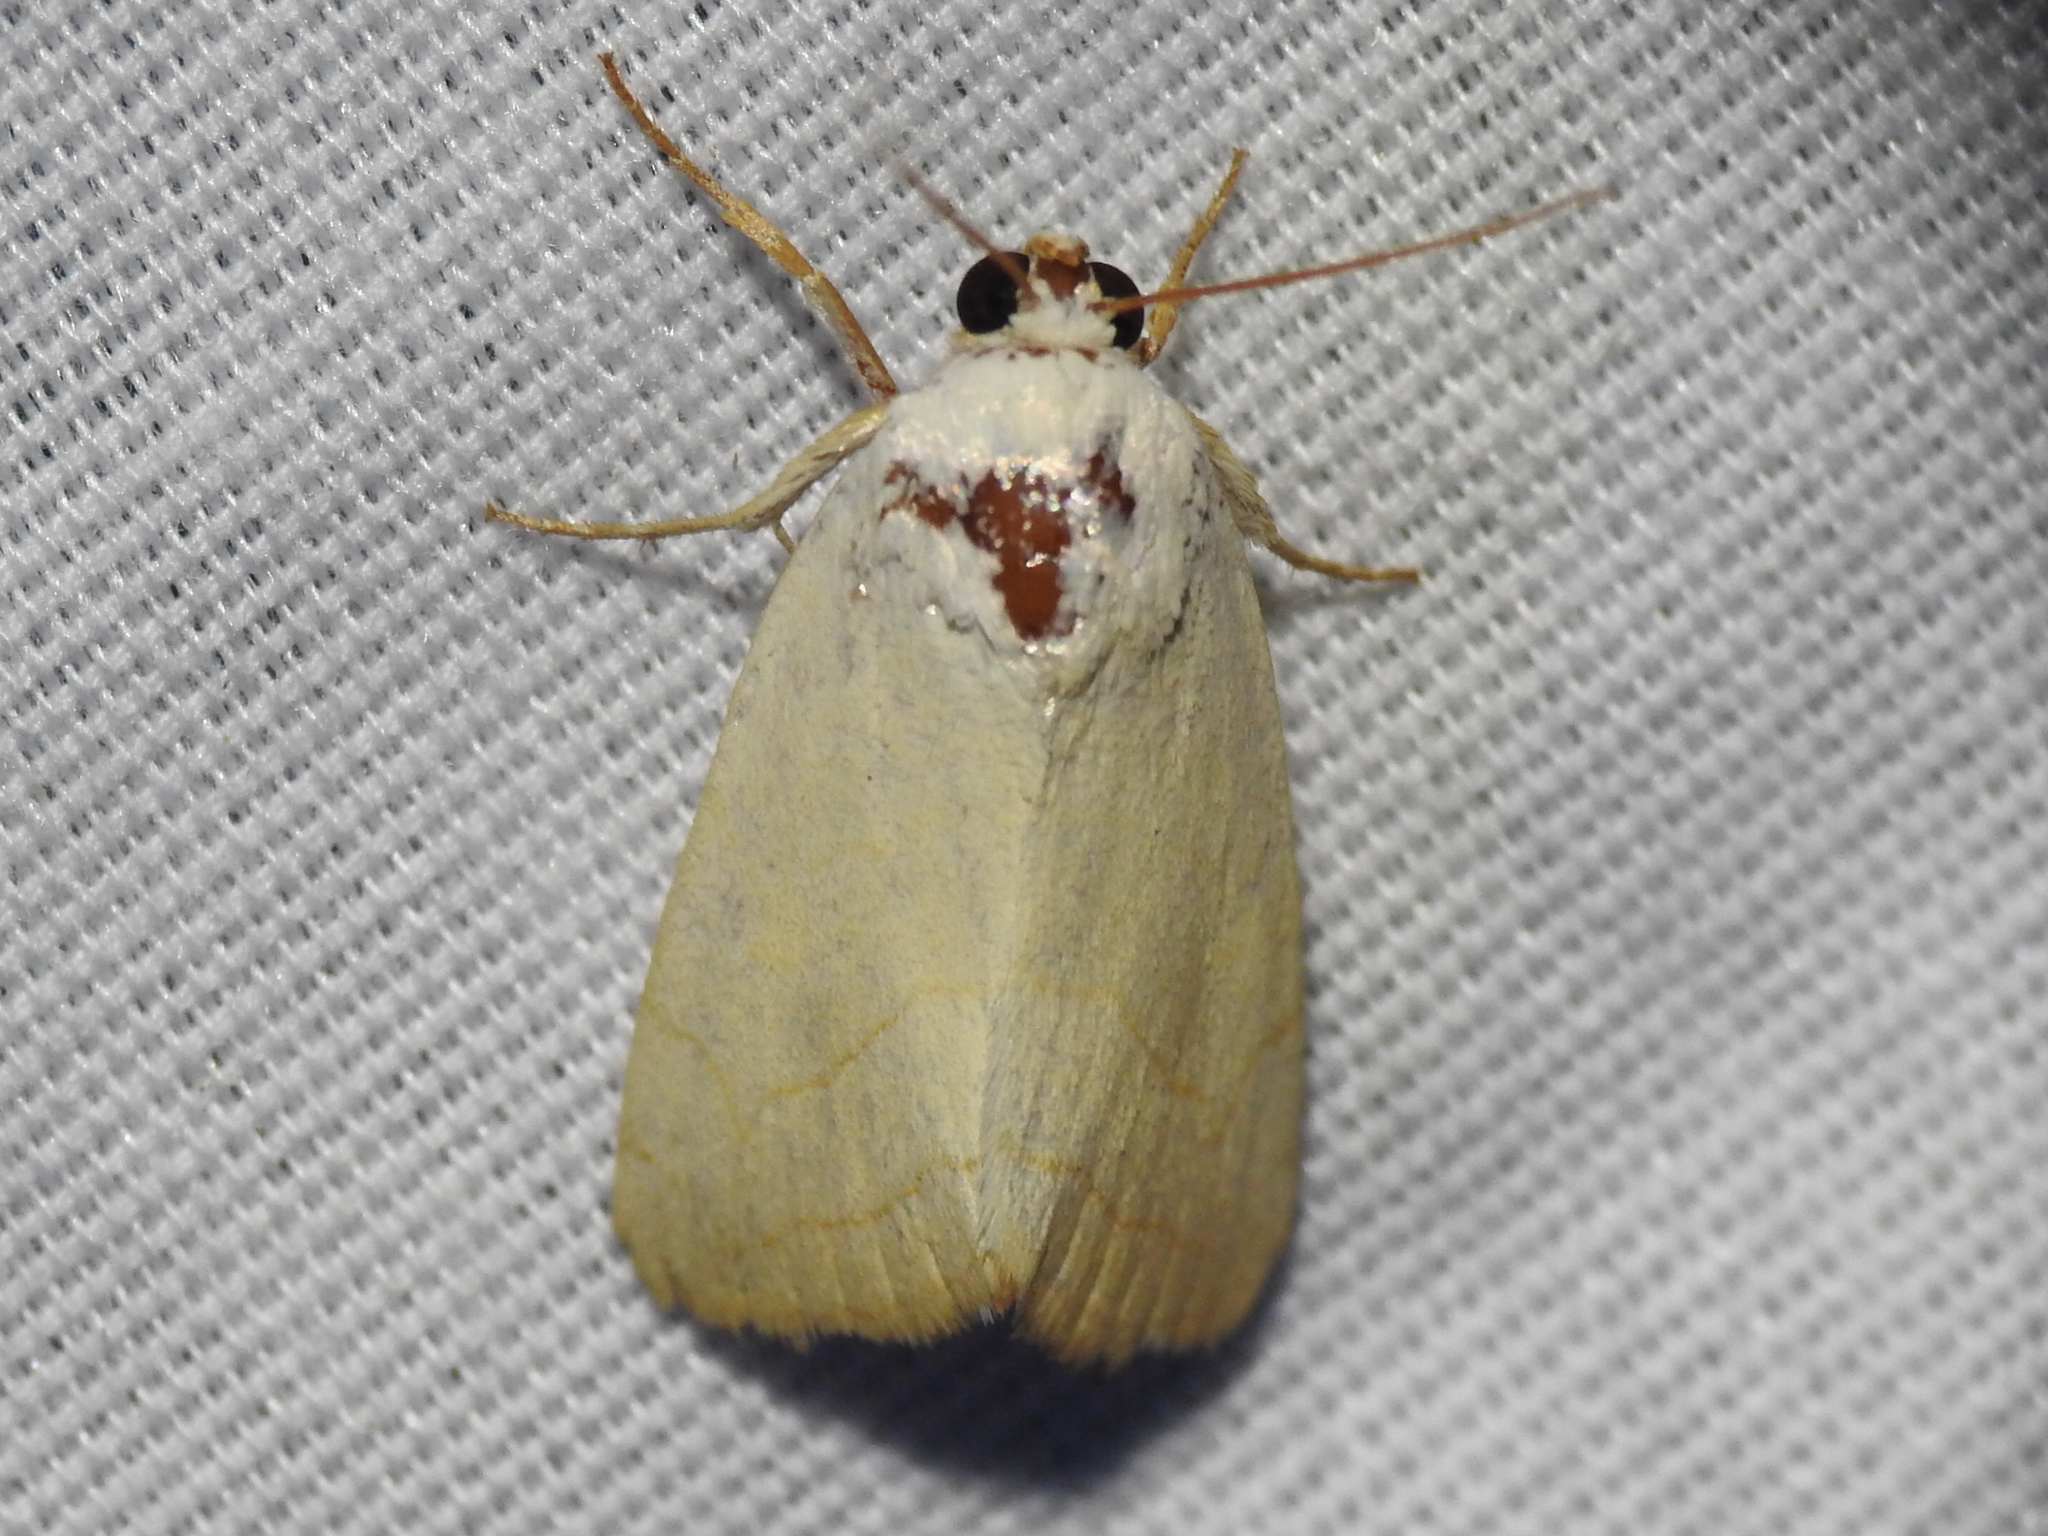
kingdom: Animalia
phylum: Arthropoda
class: Insecta
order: Lepidoptera
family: Noctuidae
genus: Bagisara
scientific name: Bagisara buxea
